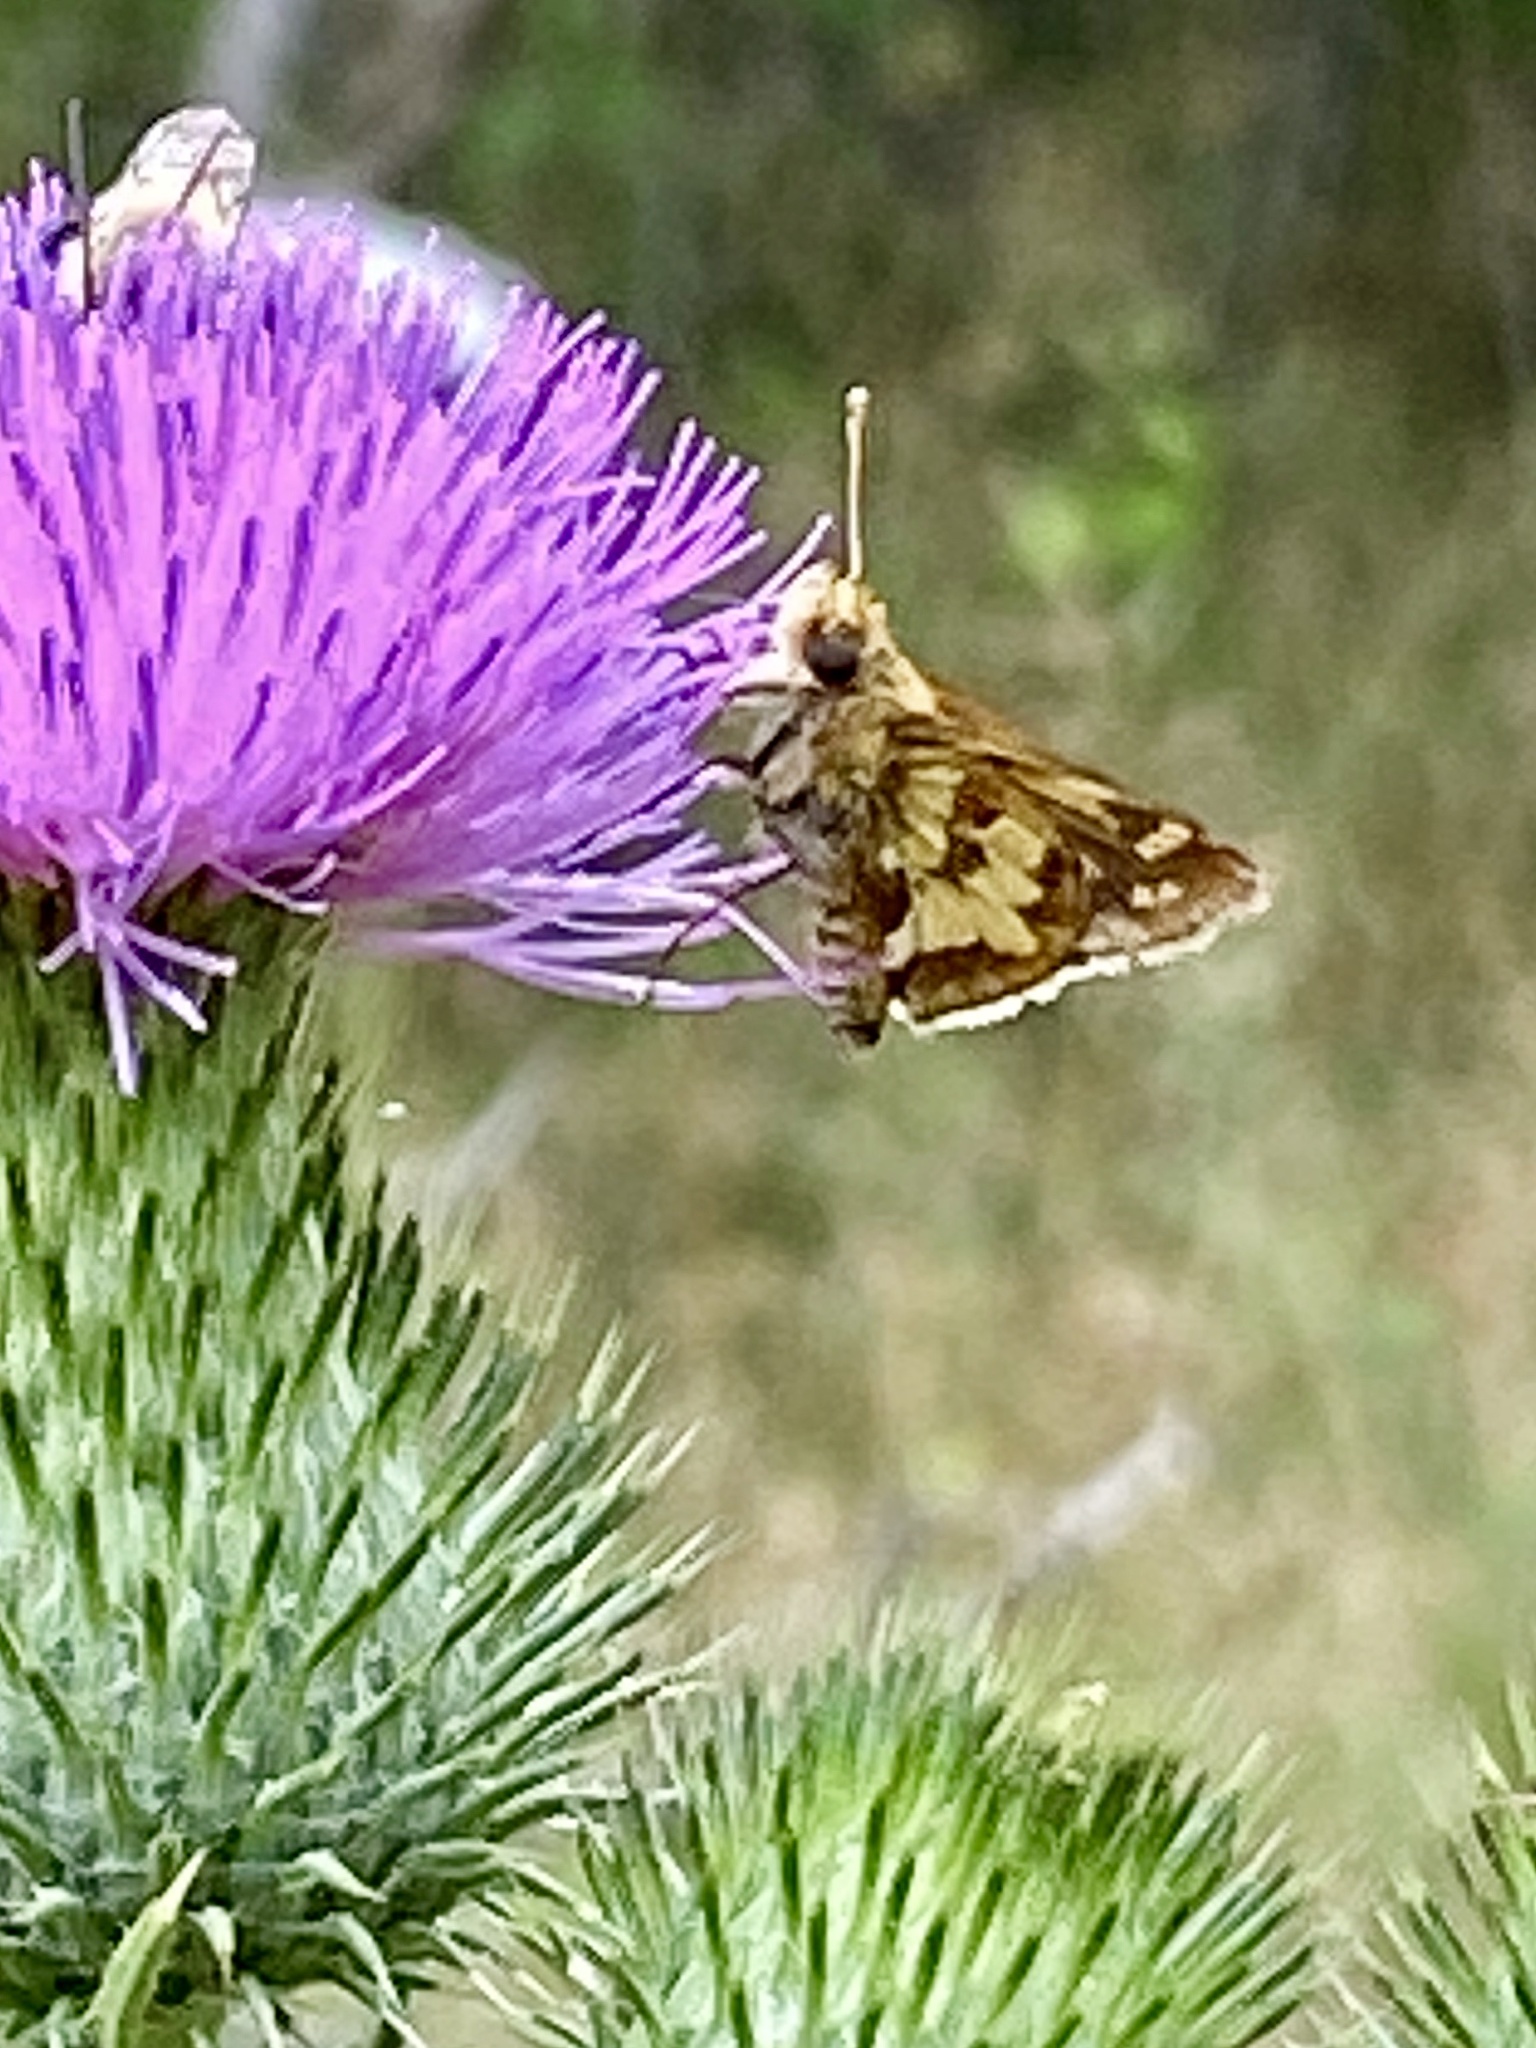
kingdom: Animalia
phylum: Arthropoda
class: Insecta
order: Lepidoptera
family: Hesperiidae
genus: Polites
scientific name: Polites coras
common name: Peck's skipper
